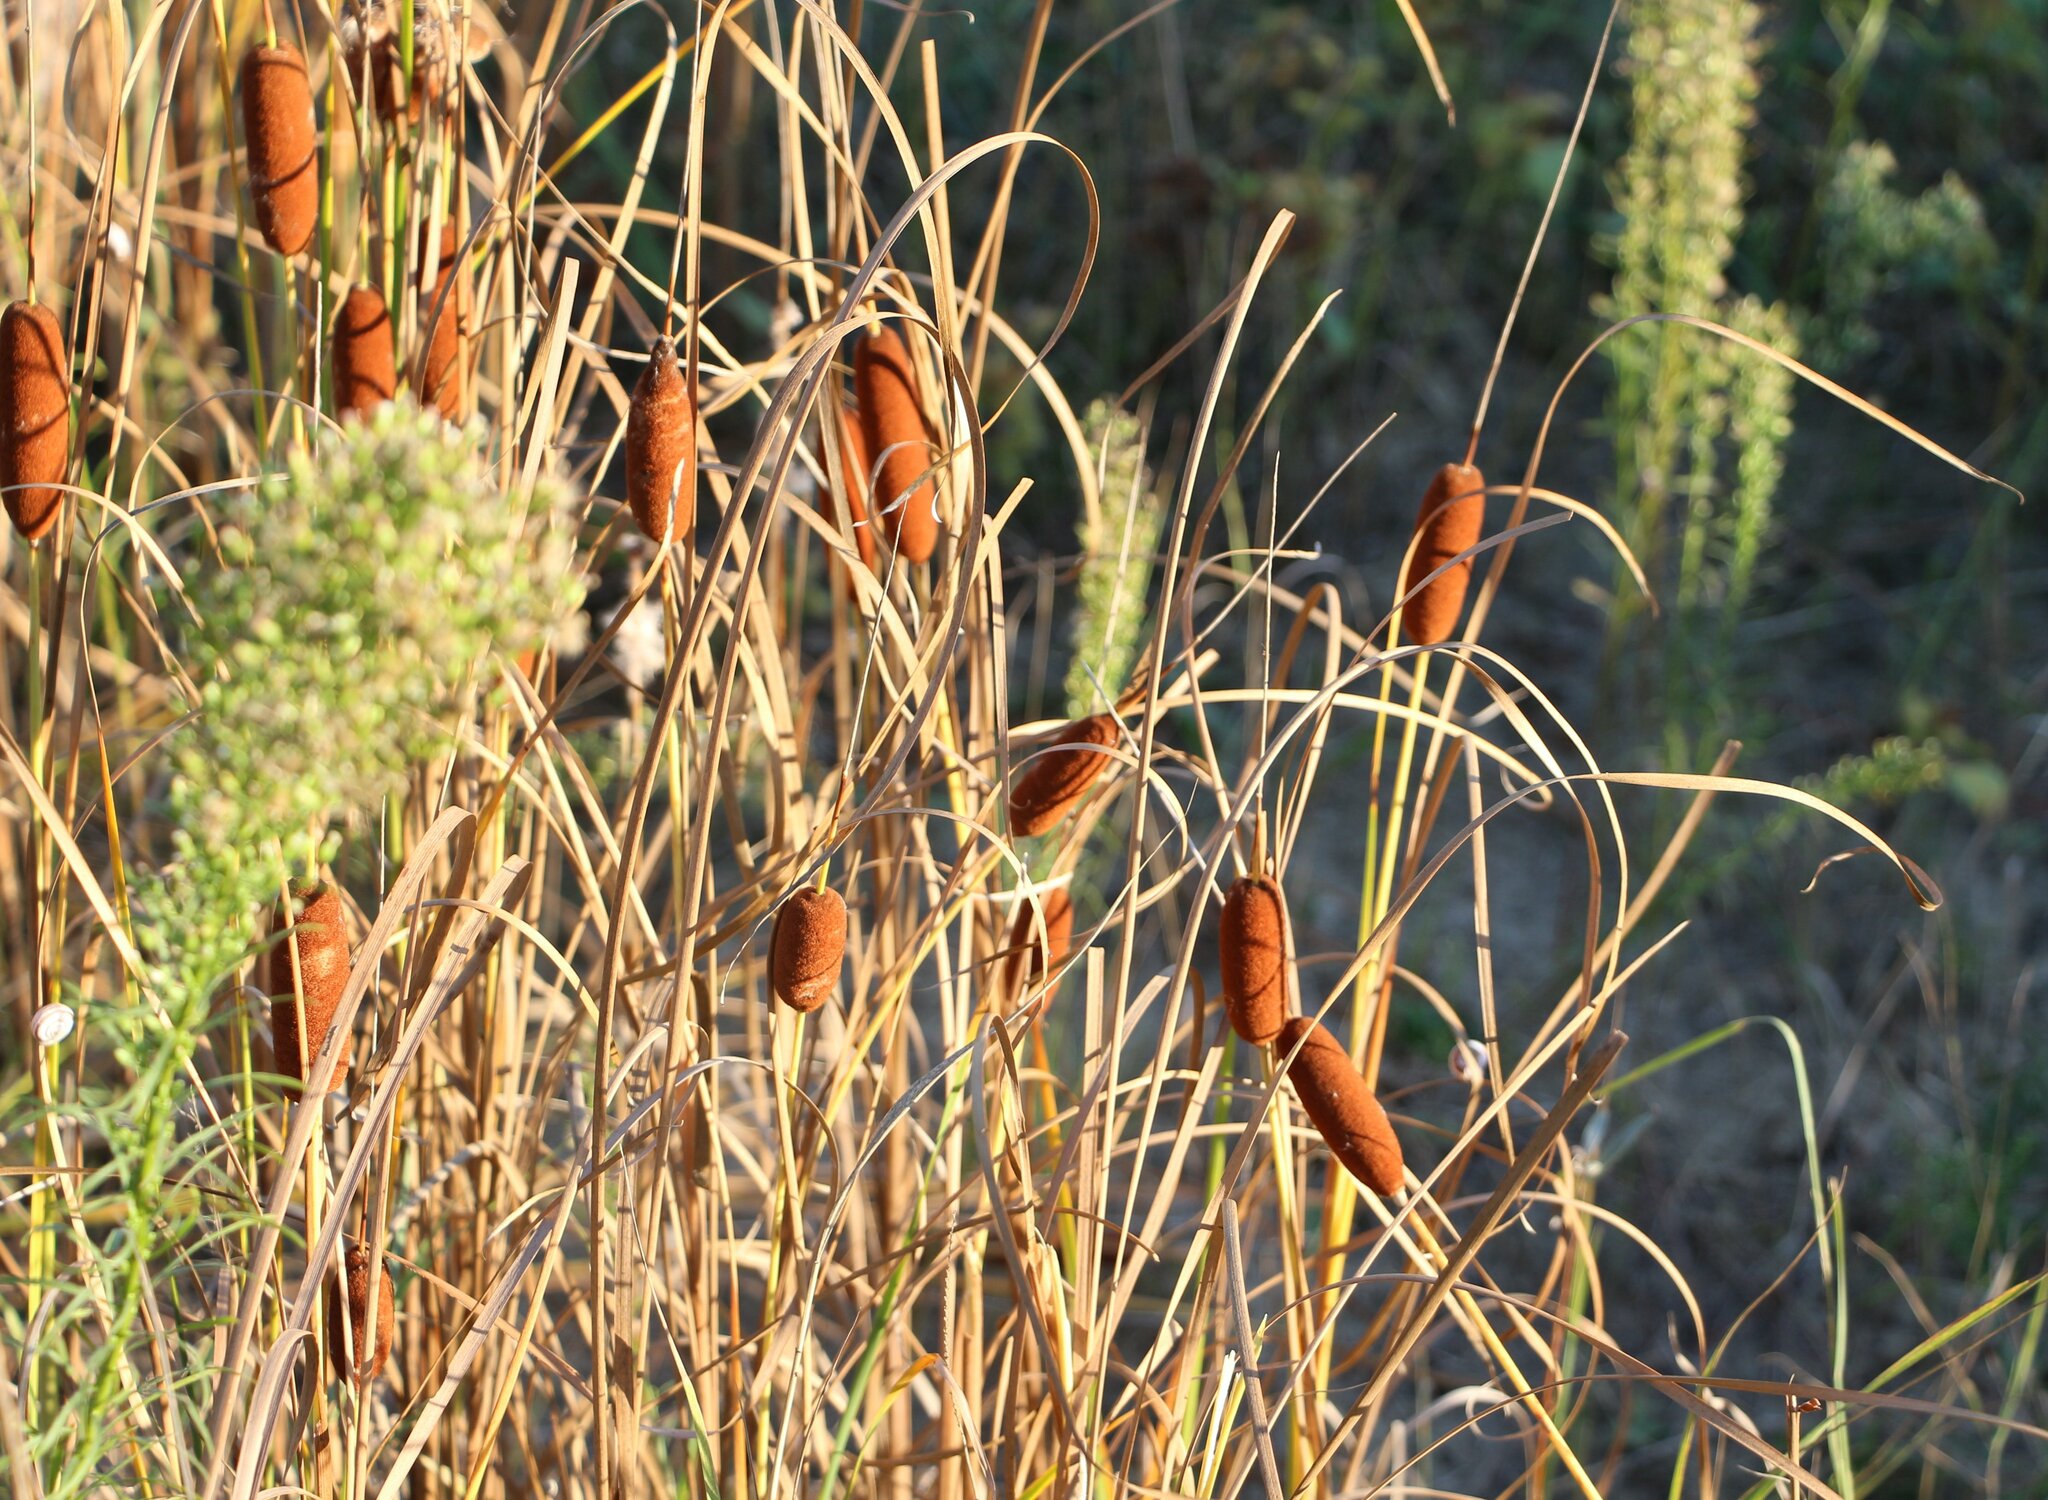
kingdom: Plantae
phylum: Tracheophyta
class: Liliopsida
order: Poales
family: Typhaceae
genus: Typha
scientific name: Typha laxmannii
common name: Laxman’s bulrush
